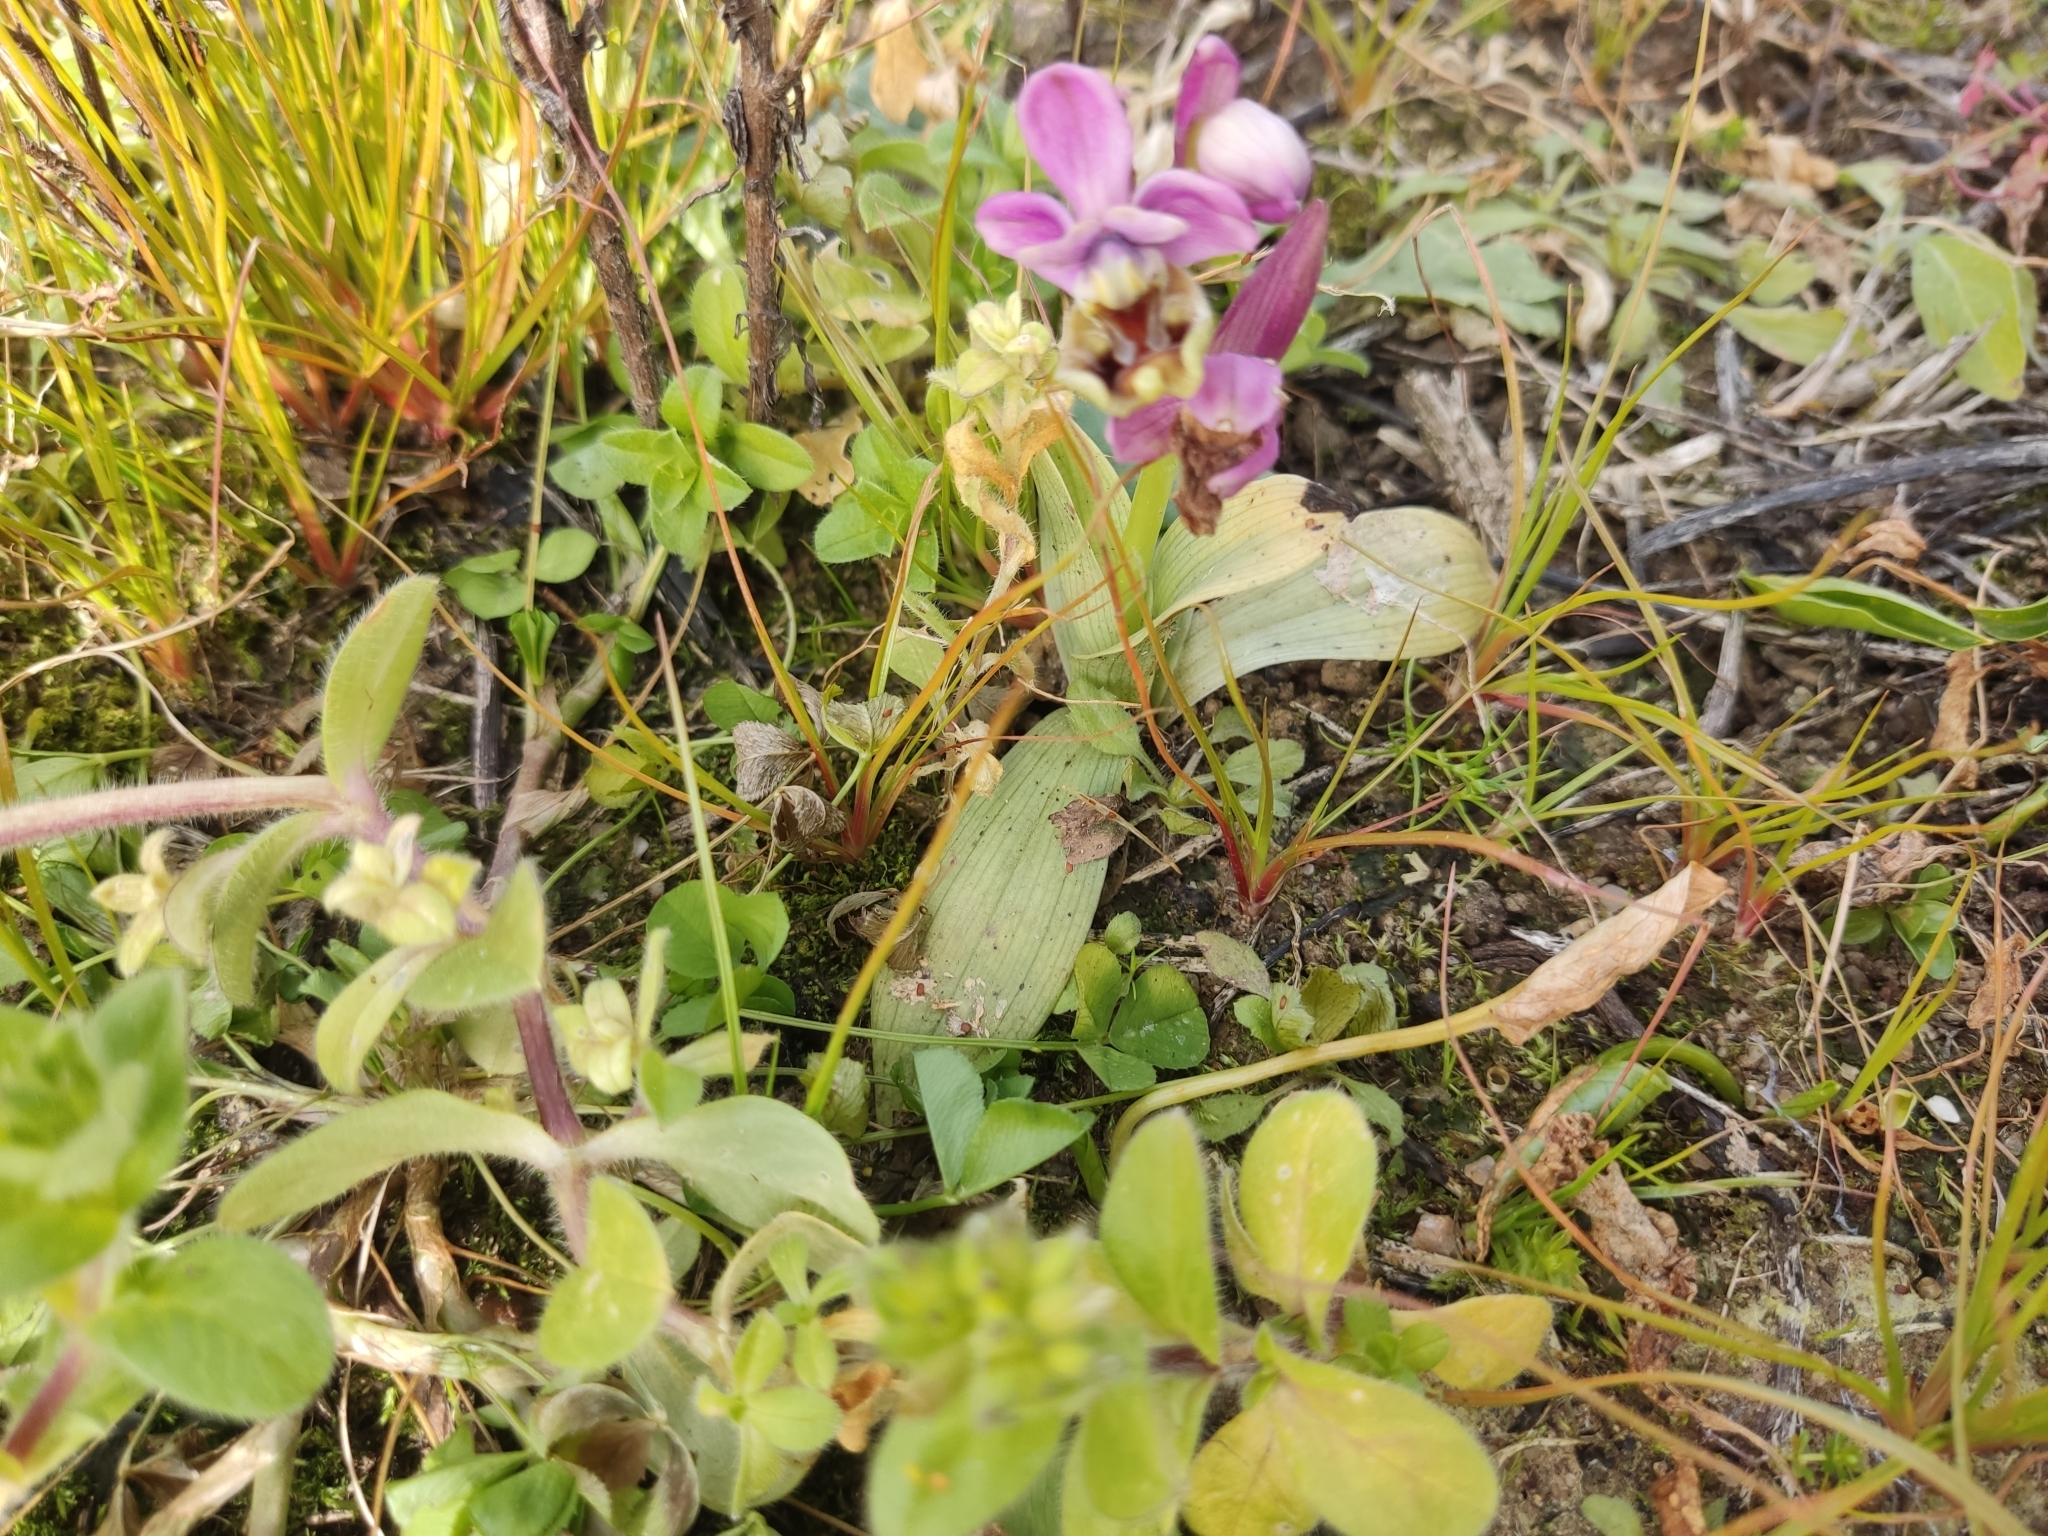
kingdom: Plantae
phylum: Tracheophyta
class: Liliopsida
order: Asparagales
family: Orchidaceae
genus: Ophrys
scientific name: Ophrys tenthredinifera
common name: Sawfly orchid
